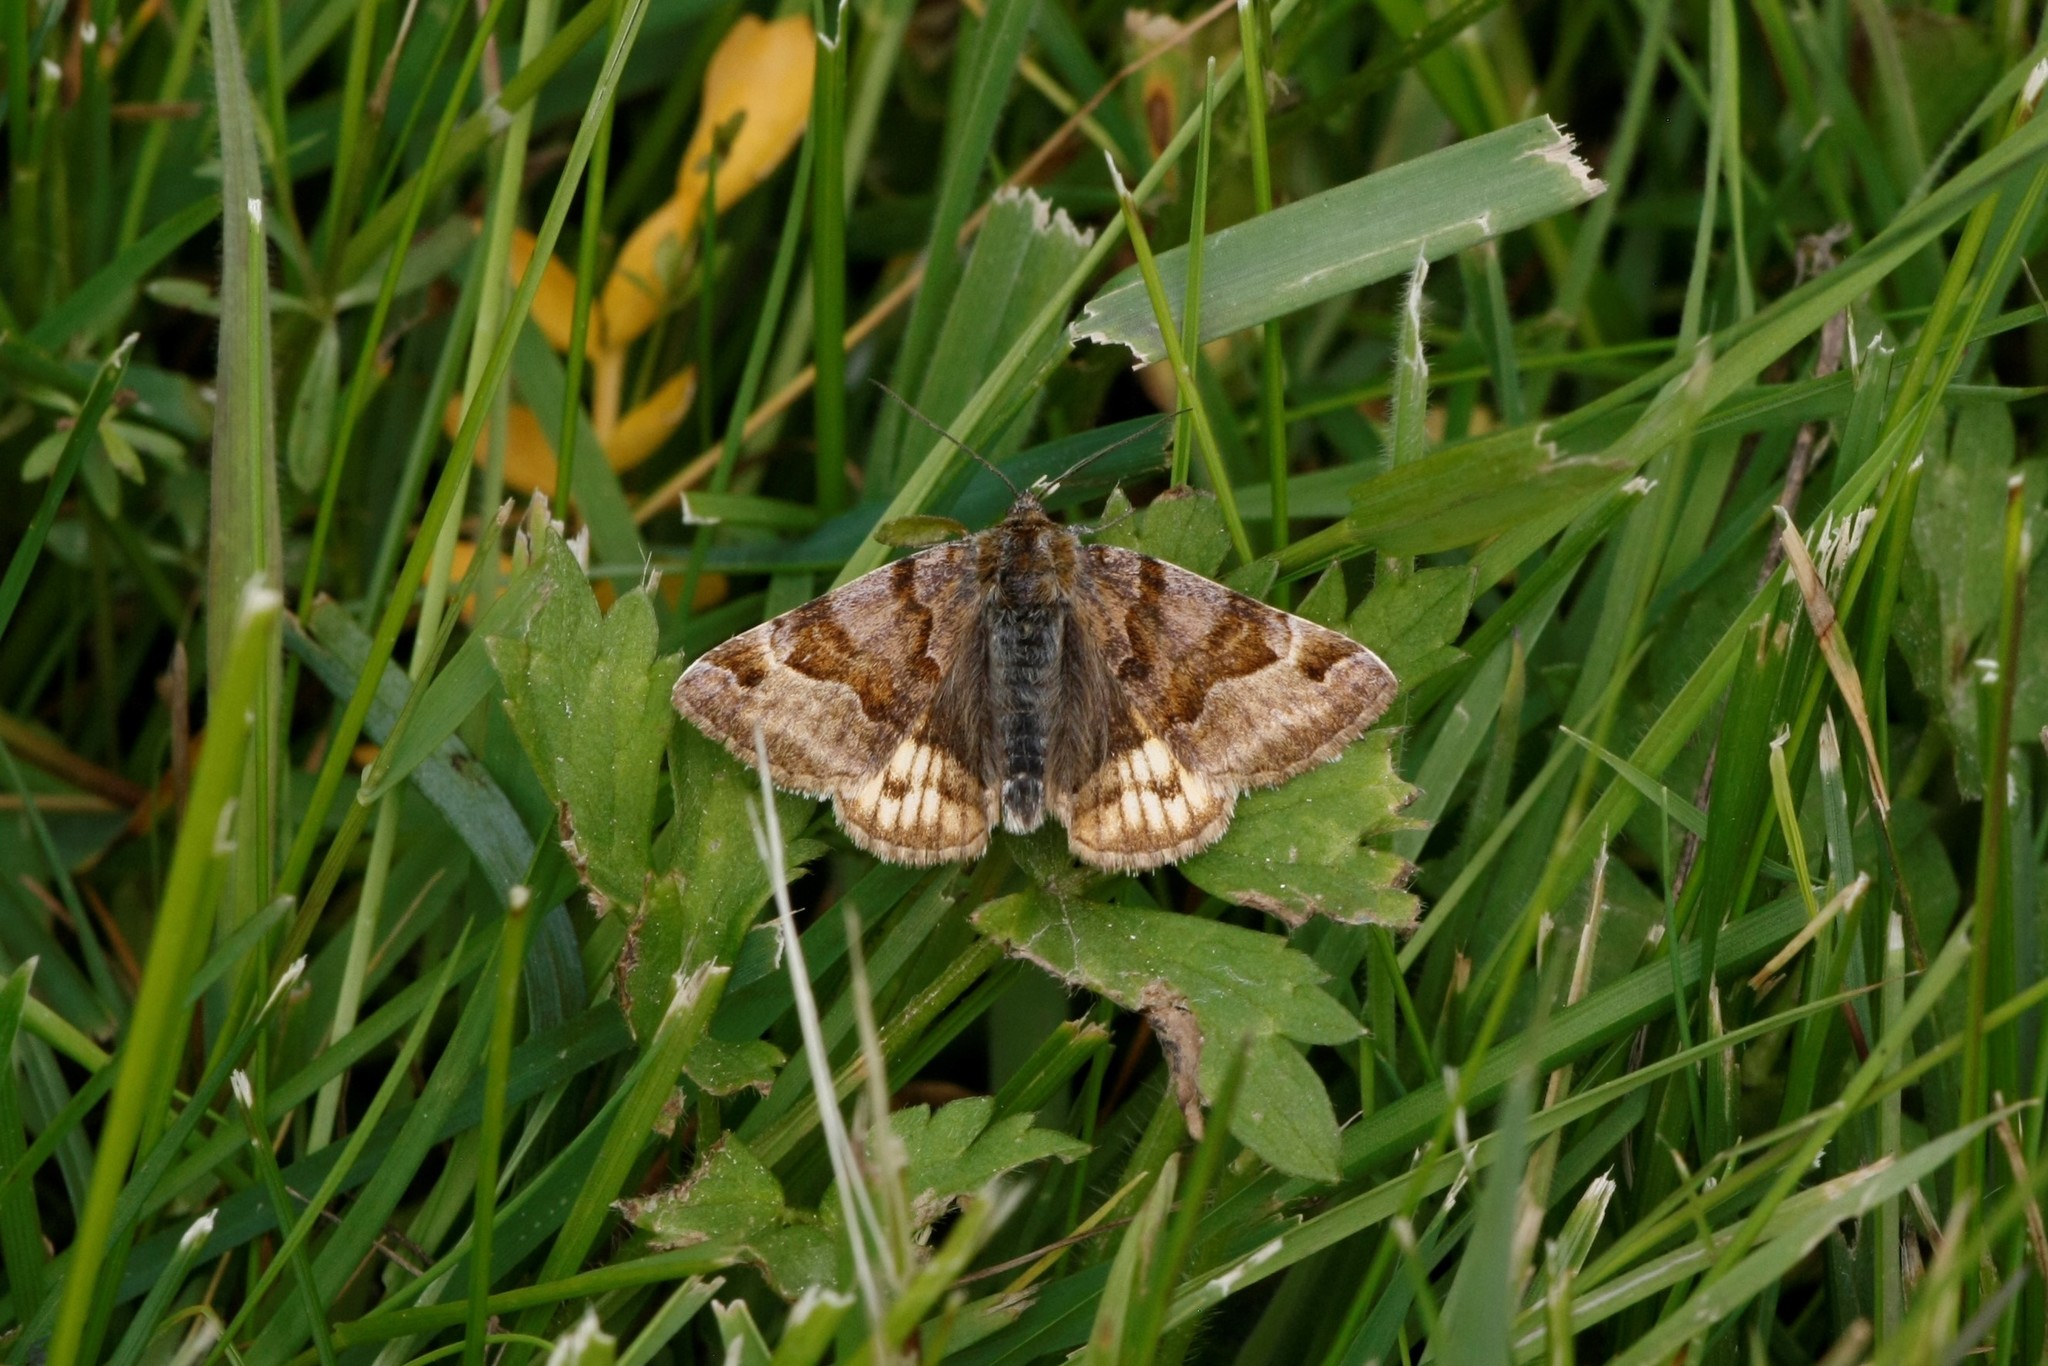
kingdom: Animalia
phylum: Arthropoda
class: Insecta
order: Lepidoptera
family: Erebidae
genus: Euclidia
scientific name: Euclidia glyphica
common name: Burnet companion
